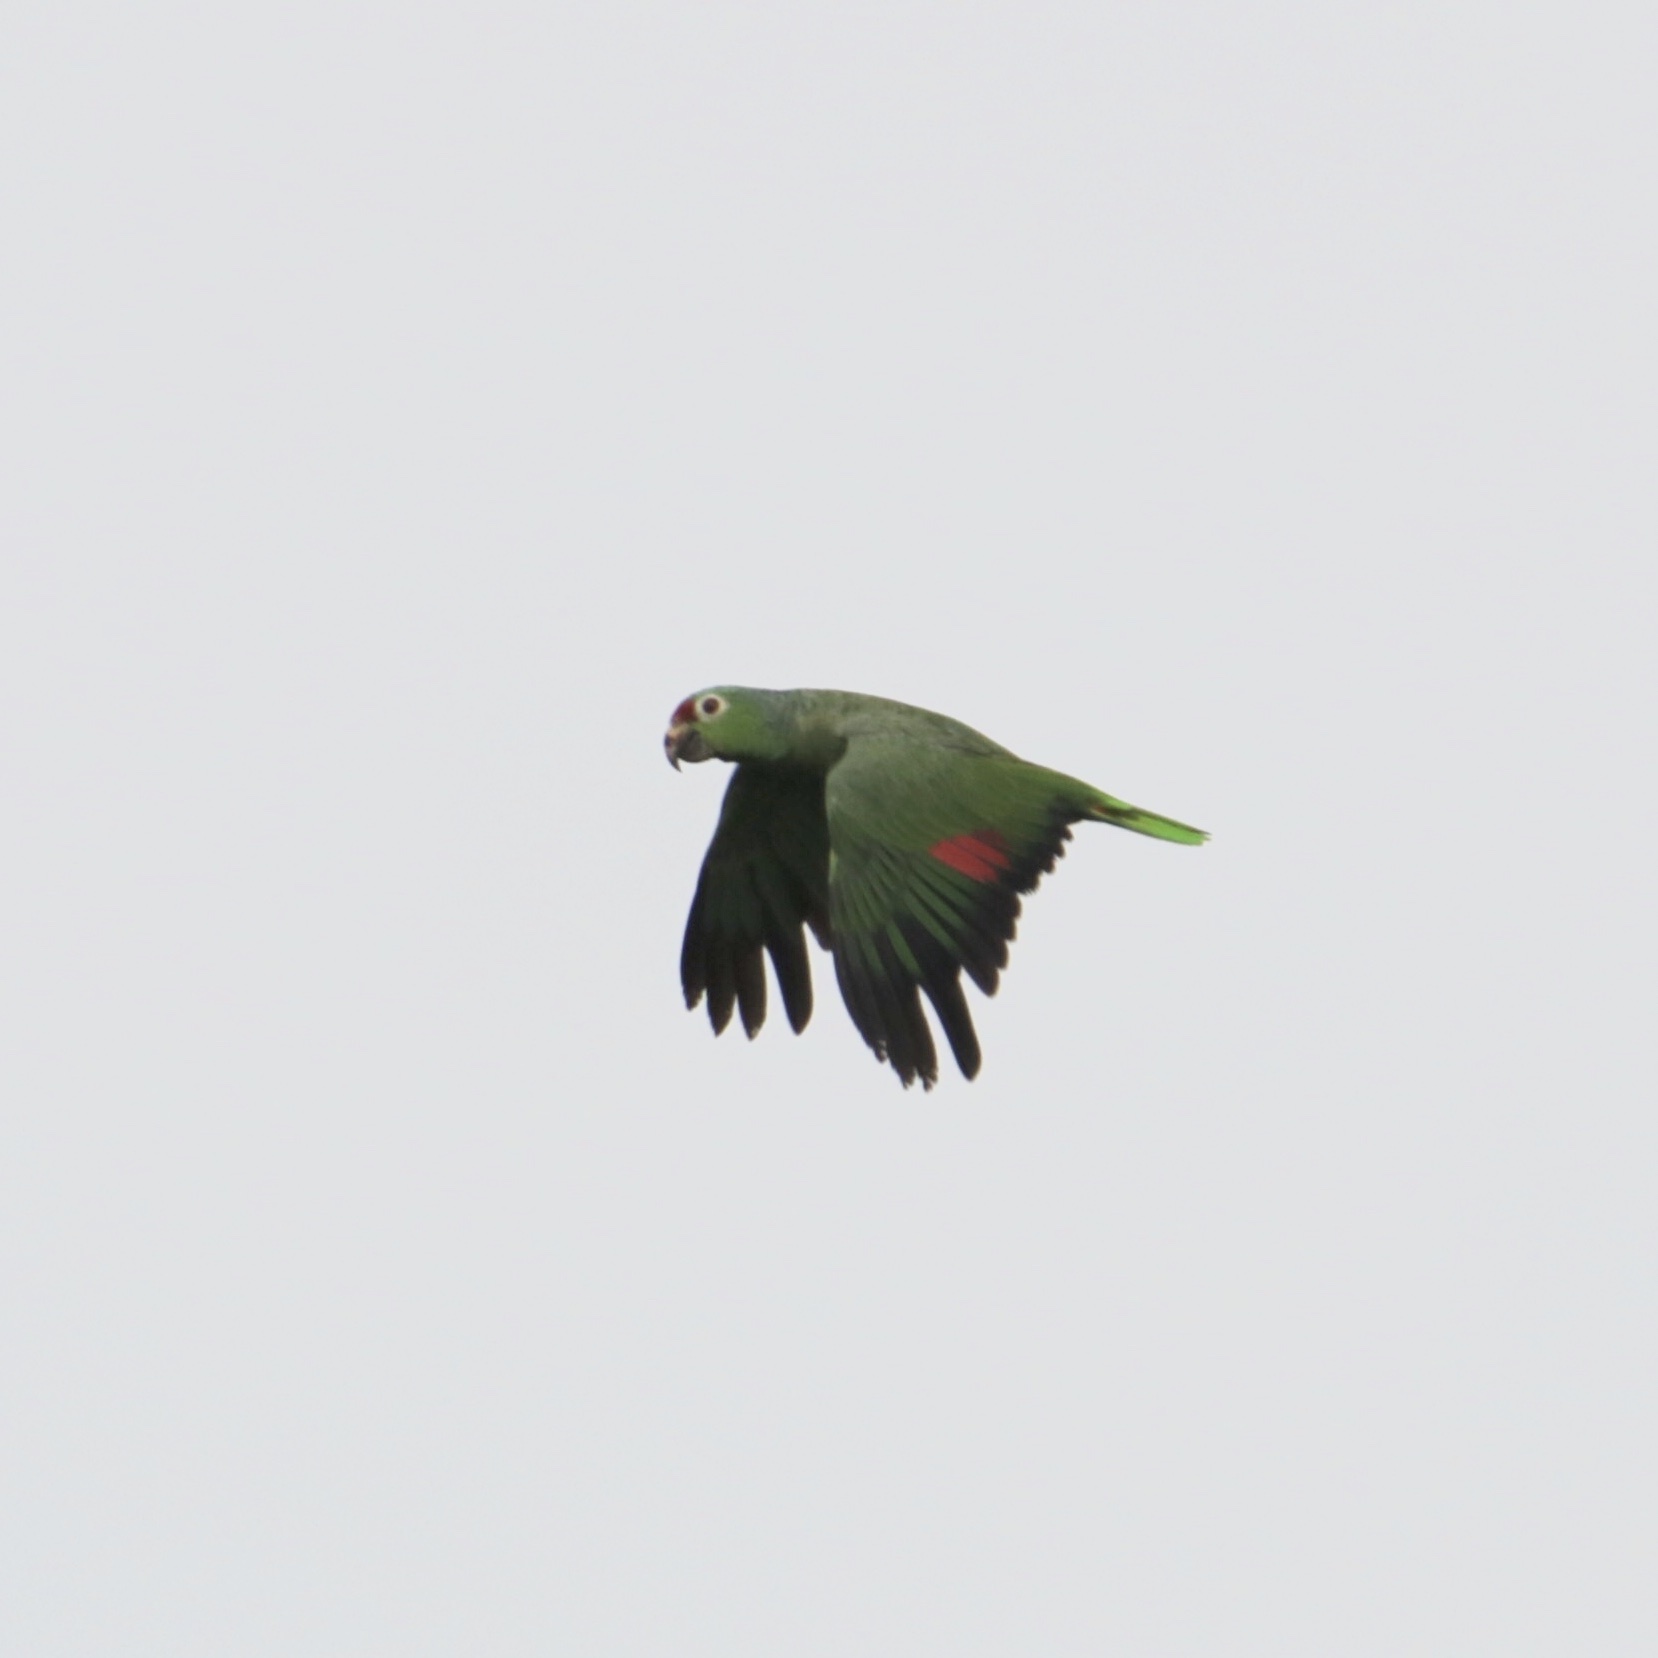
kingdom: Animalia
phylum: Chordata
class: Aves
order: Psittaciformes
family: Psittacidae
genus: Amazona
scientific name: Amazona autumnalis
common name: Red-lored amazon
